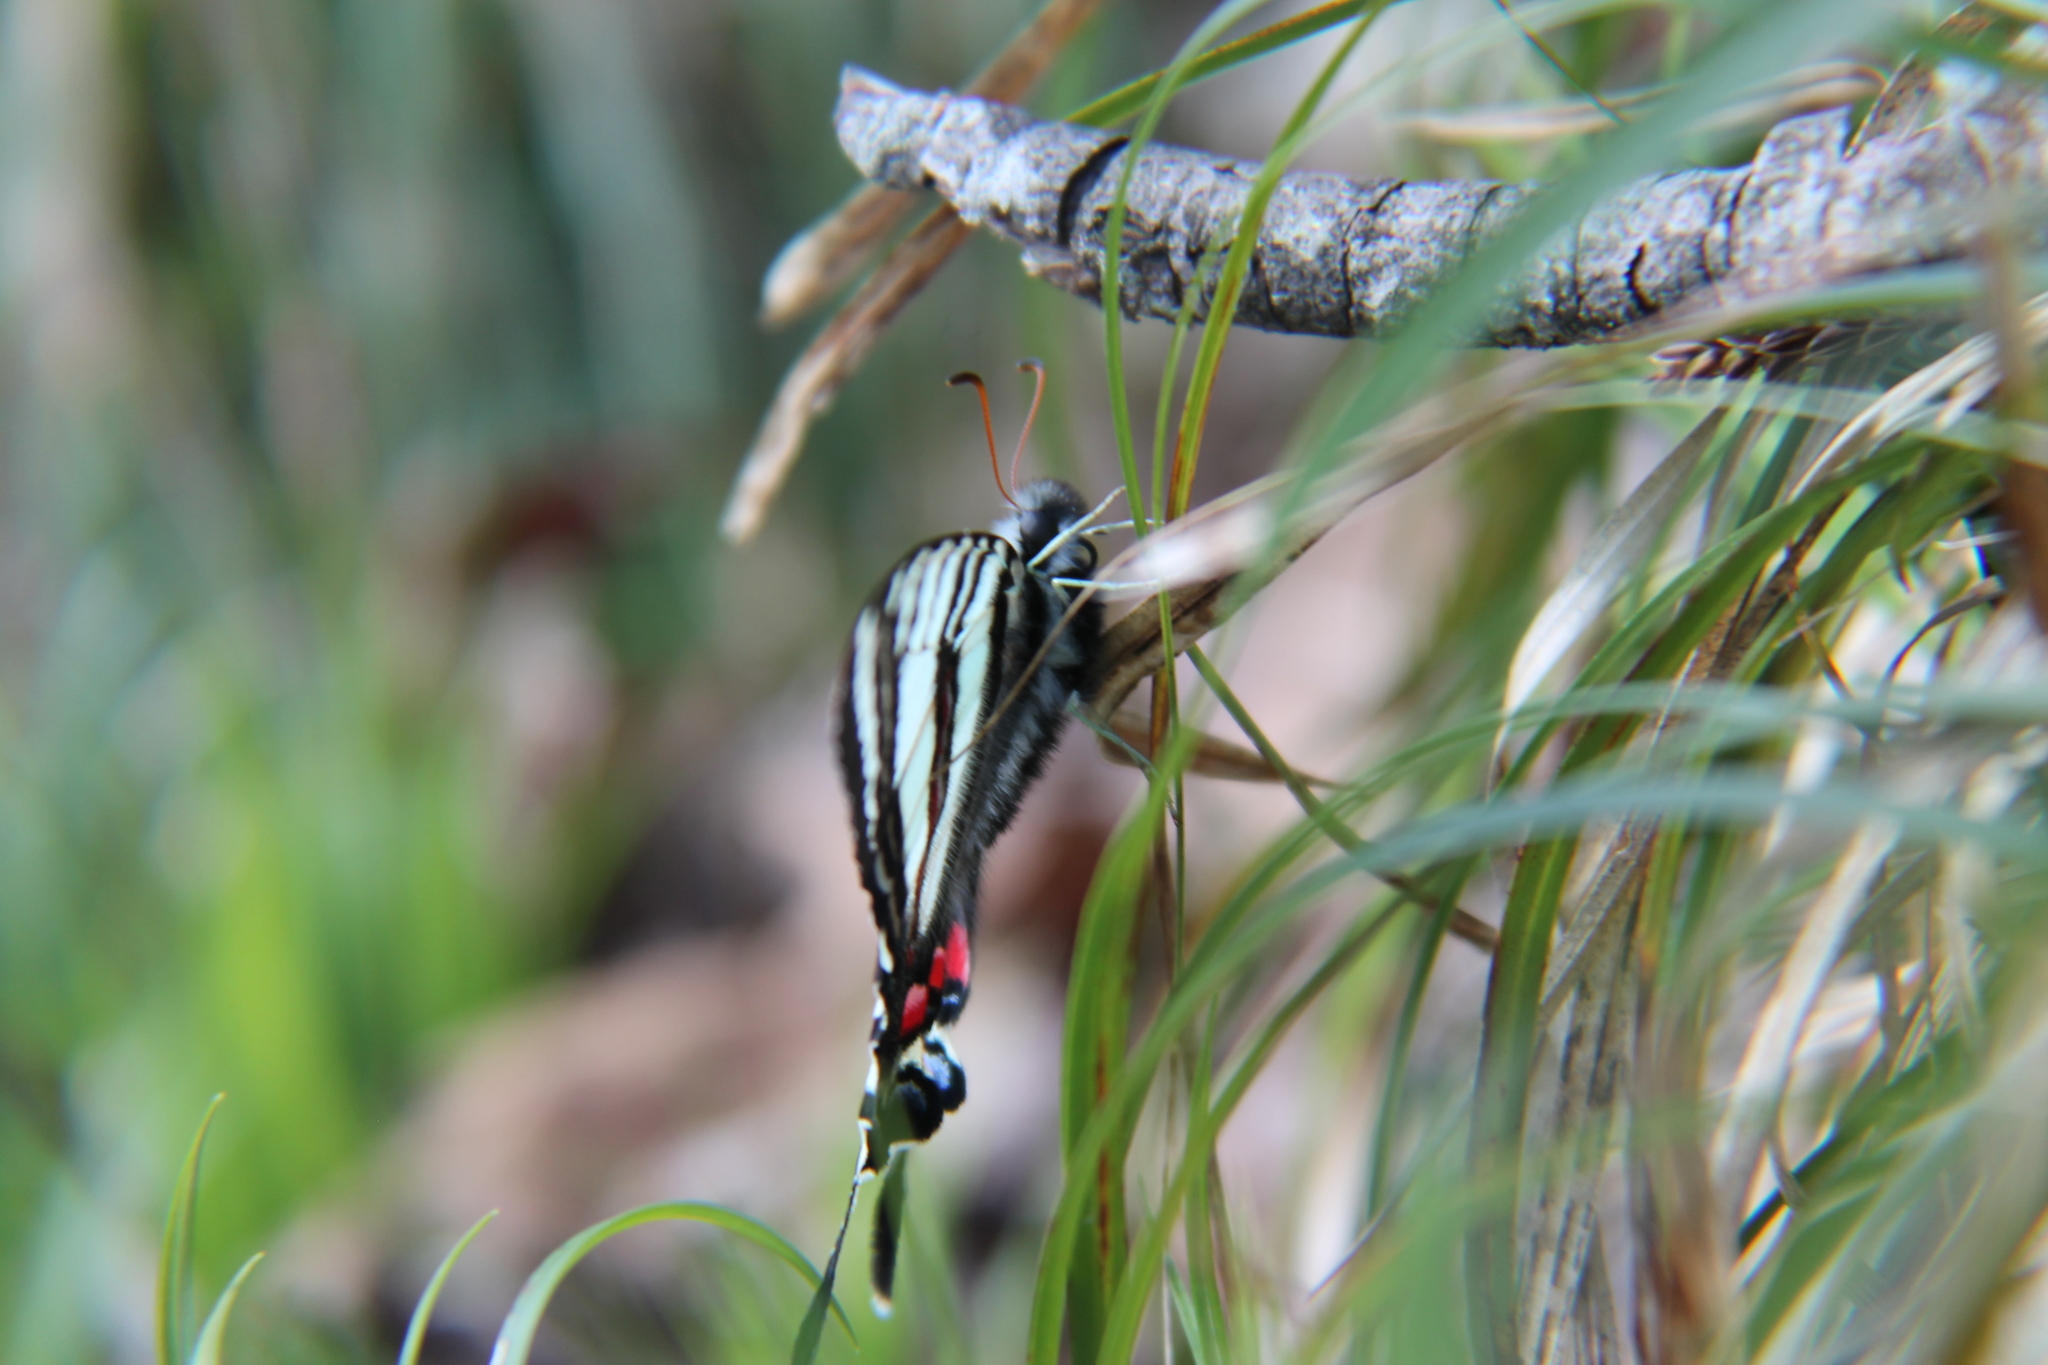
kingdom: Animalia
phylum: Arthropoda
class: Insecta
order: Lepidoptera
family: Papilionidae
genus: Protographium
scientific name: Protographium marcellus
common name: Zebra swallowtail
